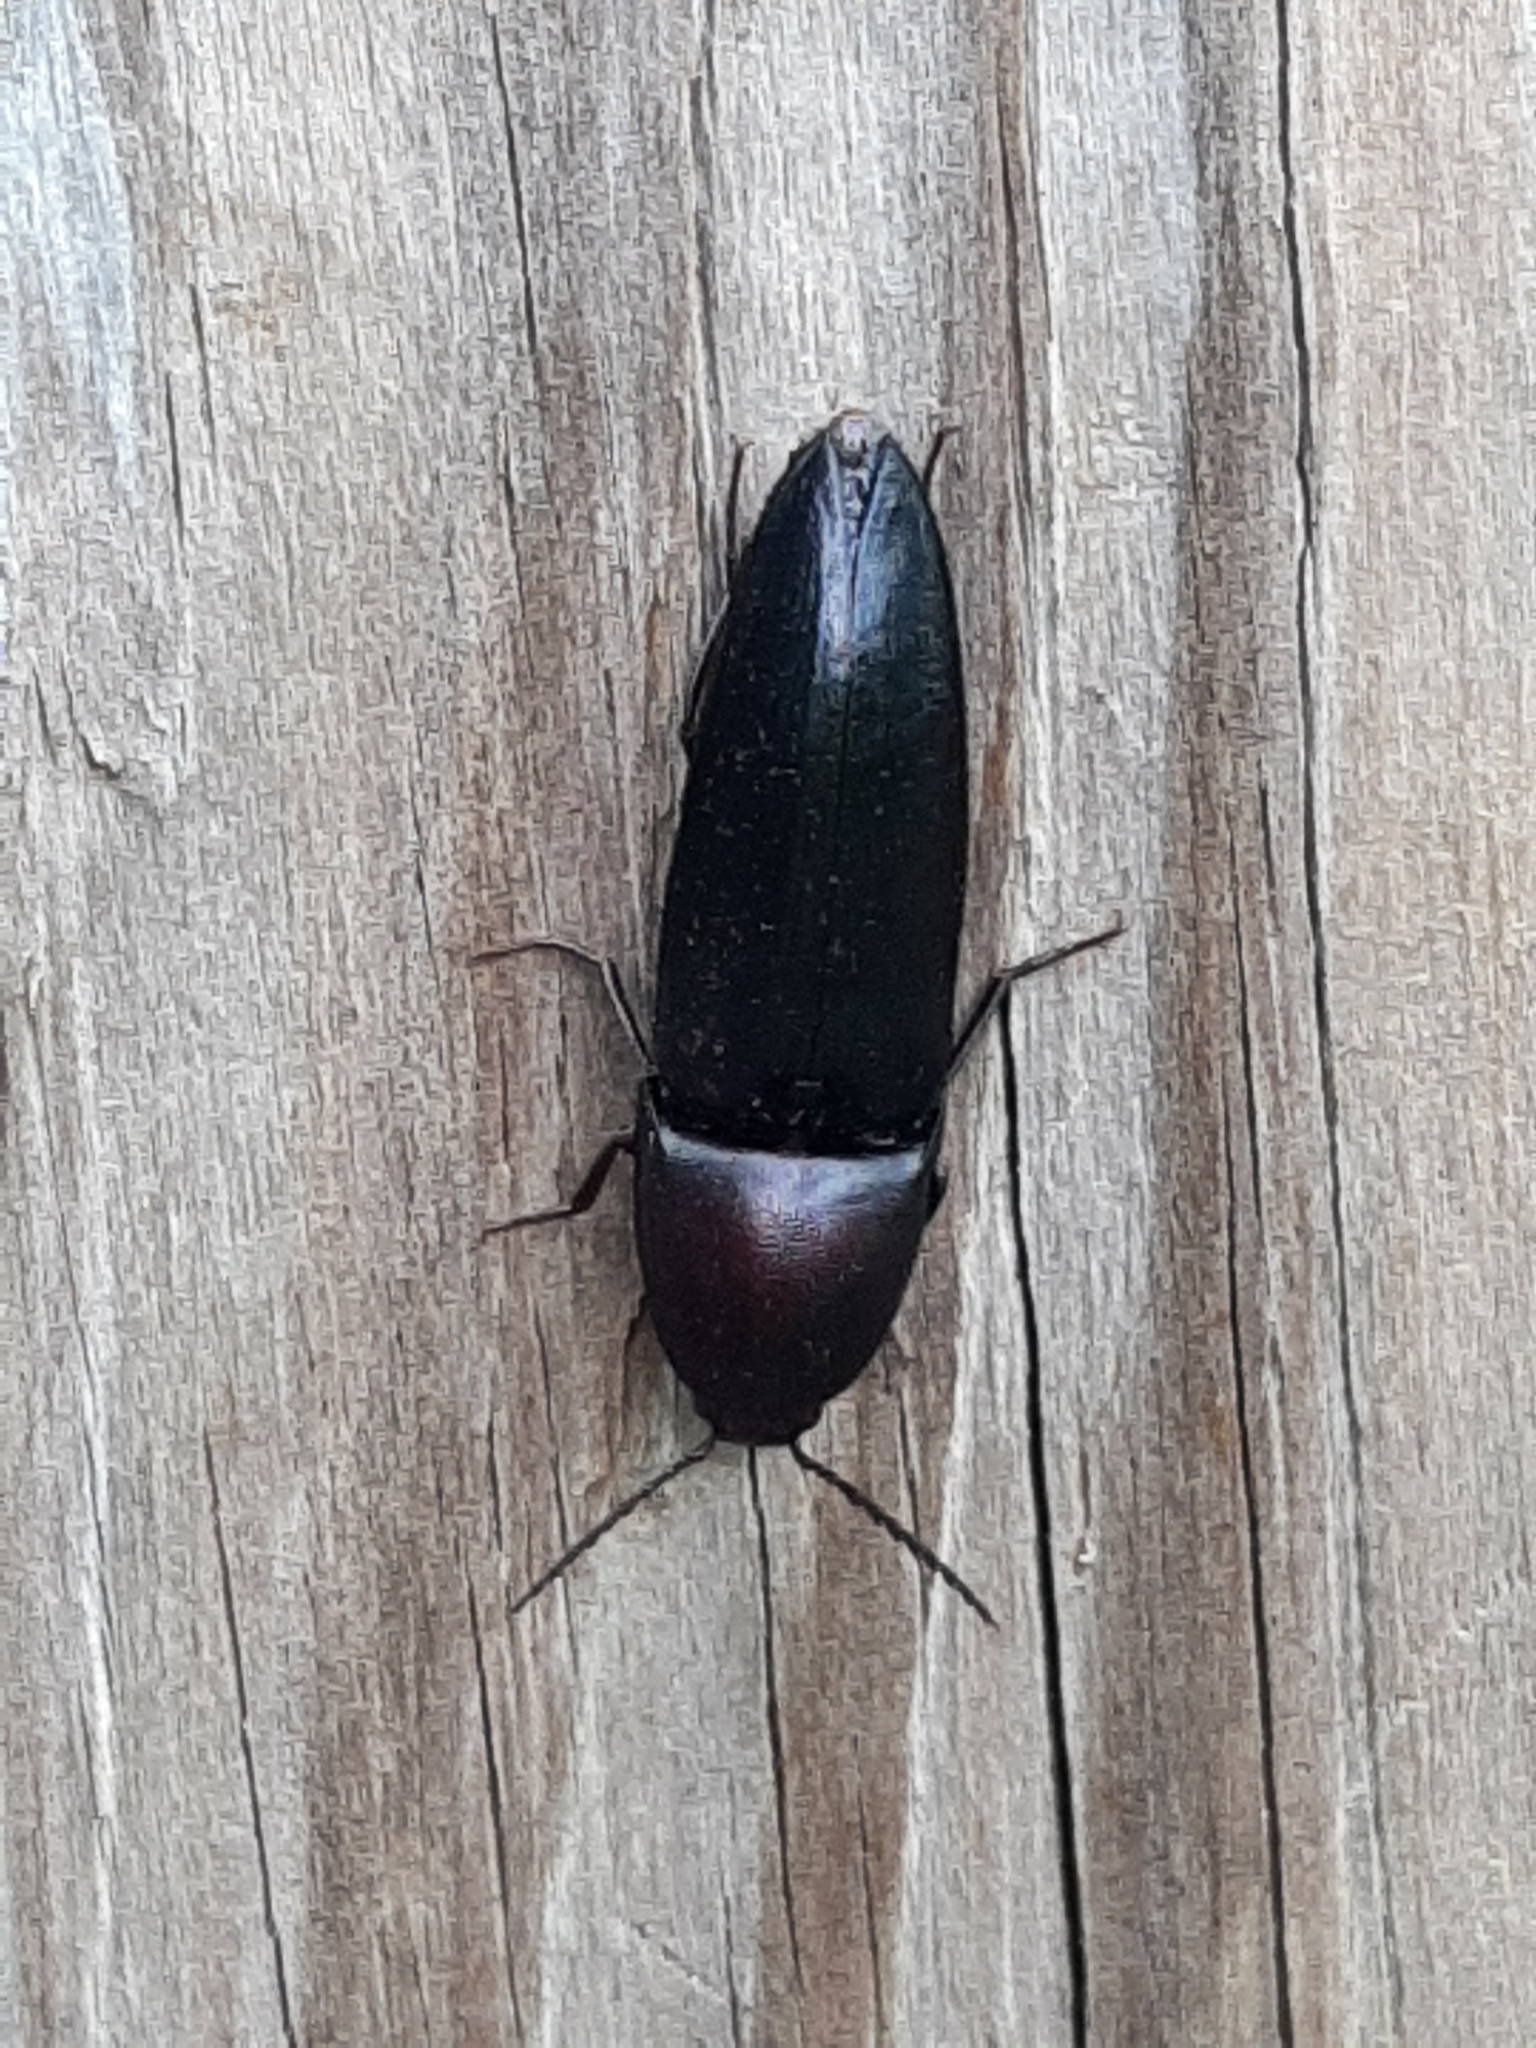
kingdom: Animalia
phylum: Arthropoda
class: Insecta
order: Coleoptera
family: Elateridae
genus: Parallelostethus
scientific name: Parallelostethus attenuatus
